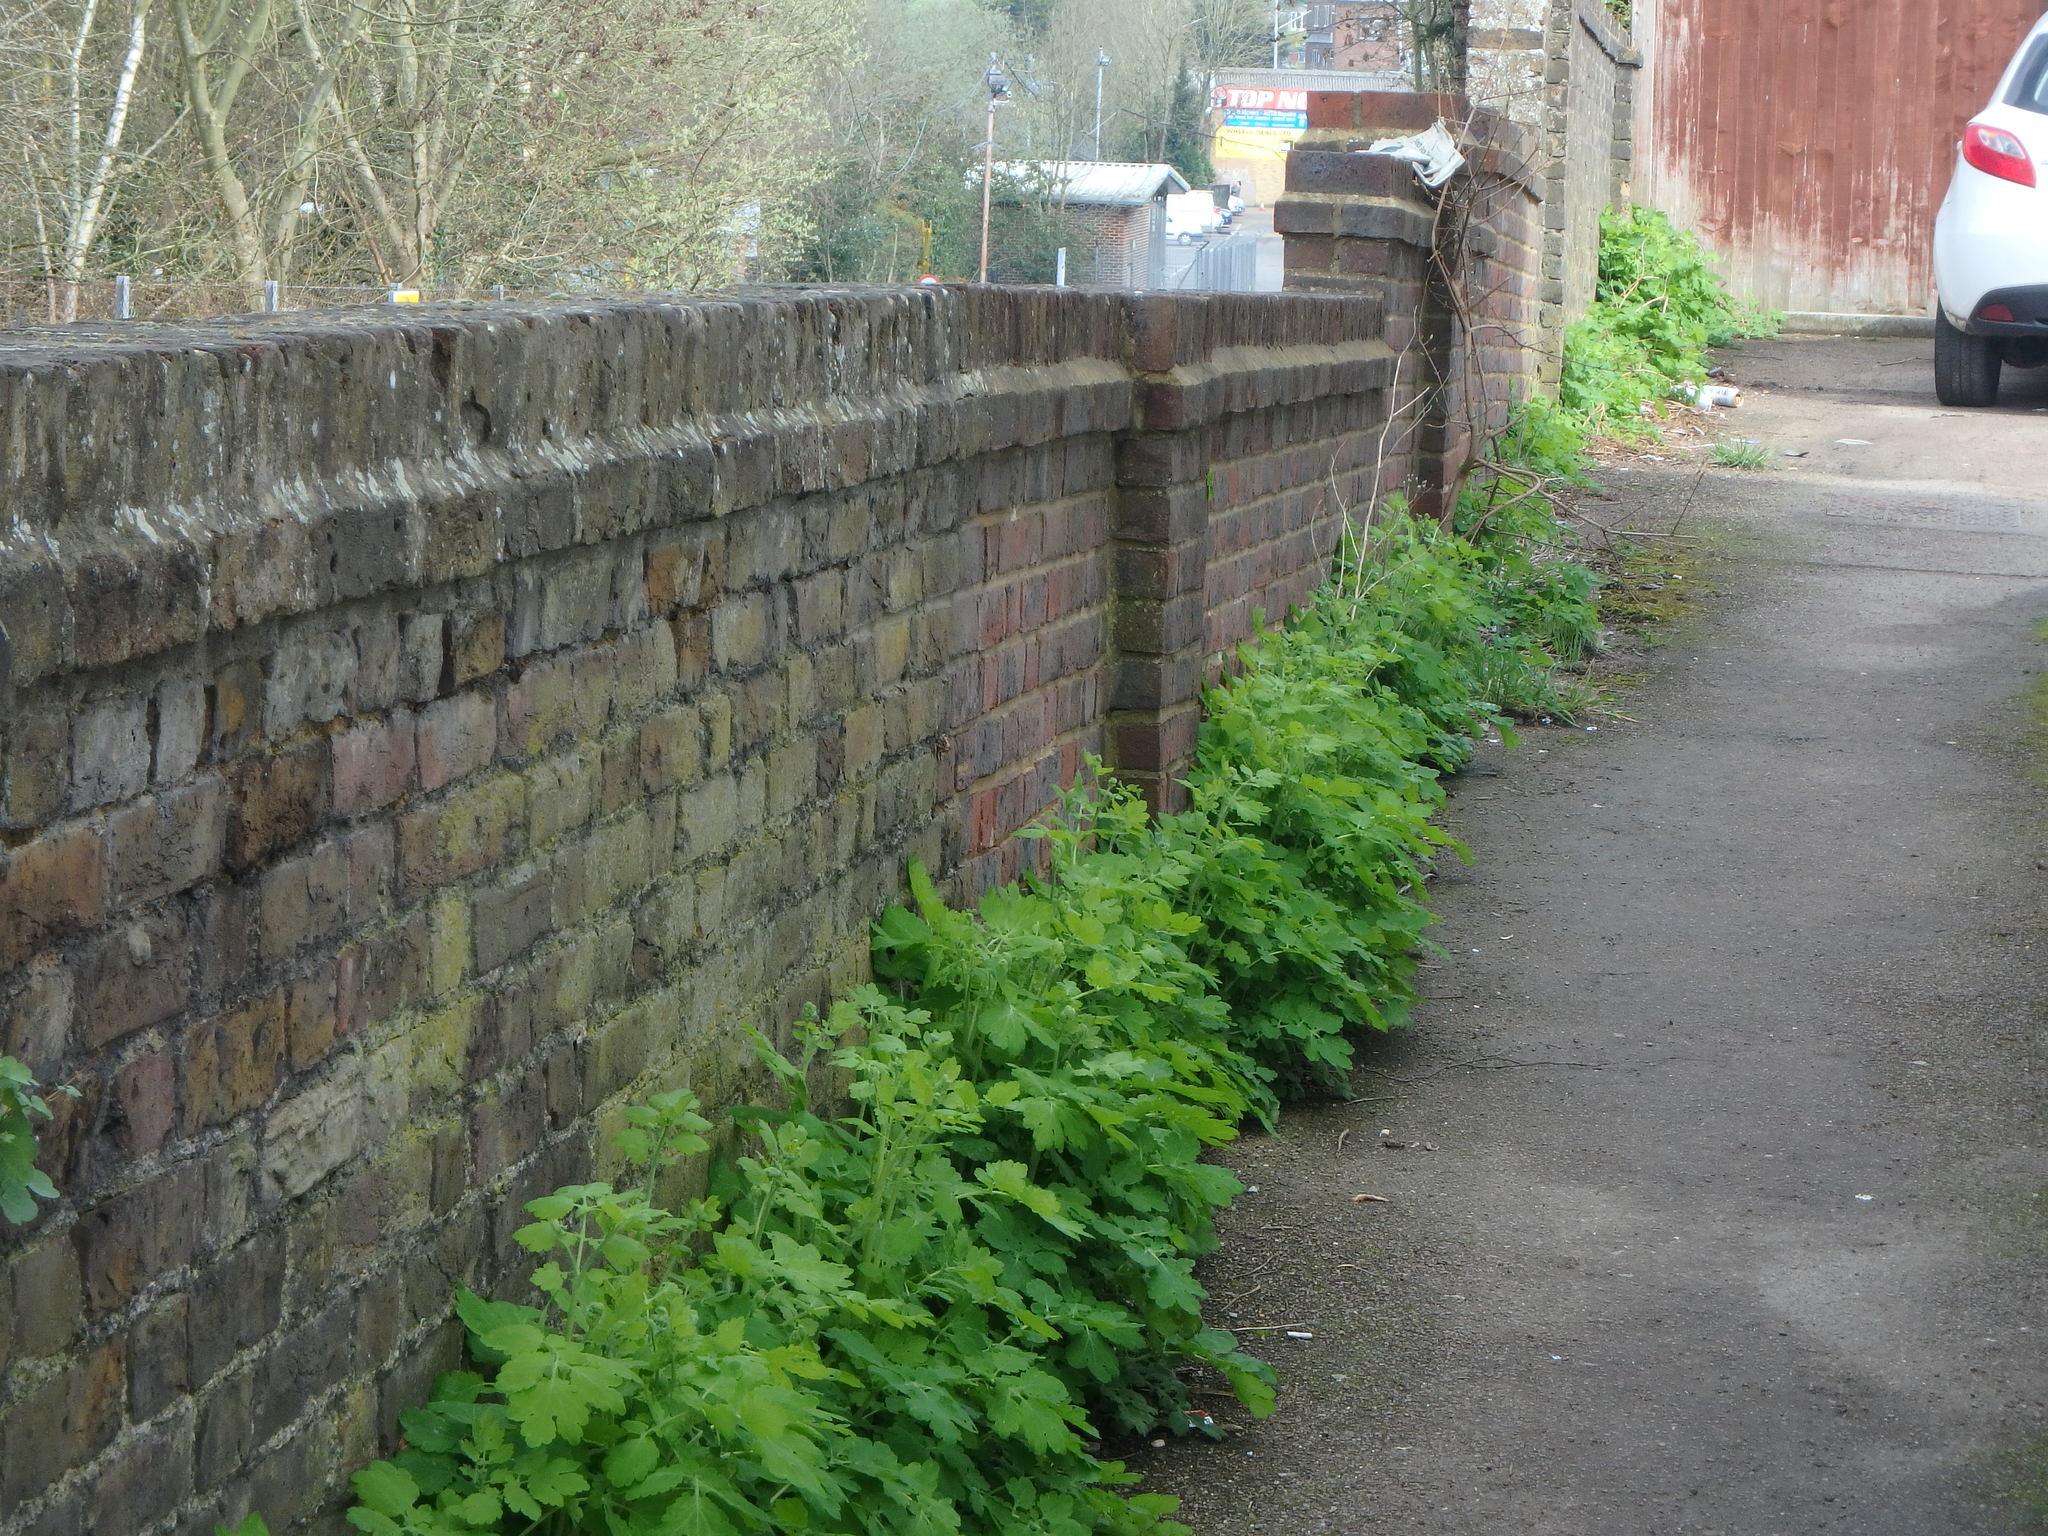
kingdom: Plantae
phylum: Tracheophyta
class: Magnoliopsida
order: Ranunculales
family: Papaveraceae
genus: Chelidonium
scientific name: Chelidonium majus
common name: Greater celandine
